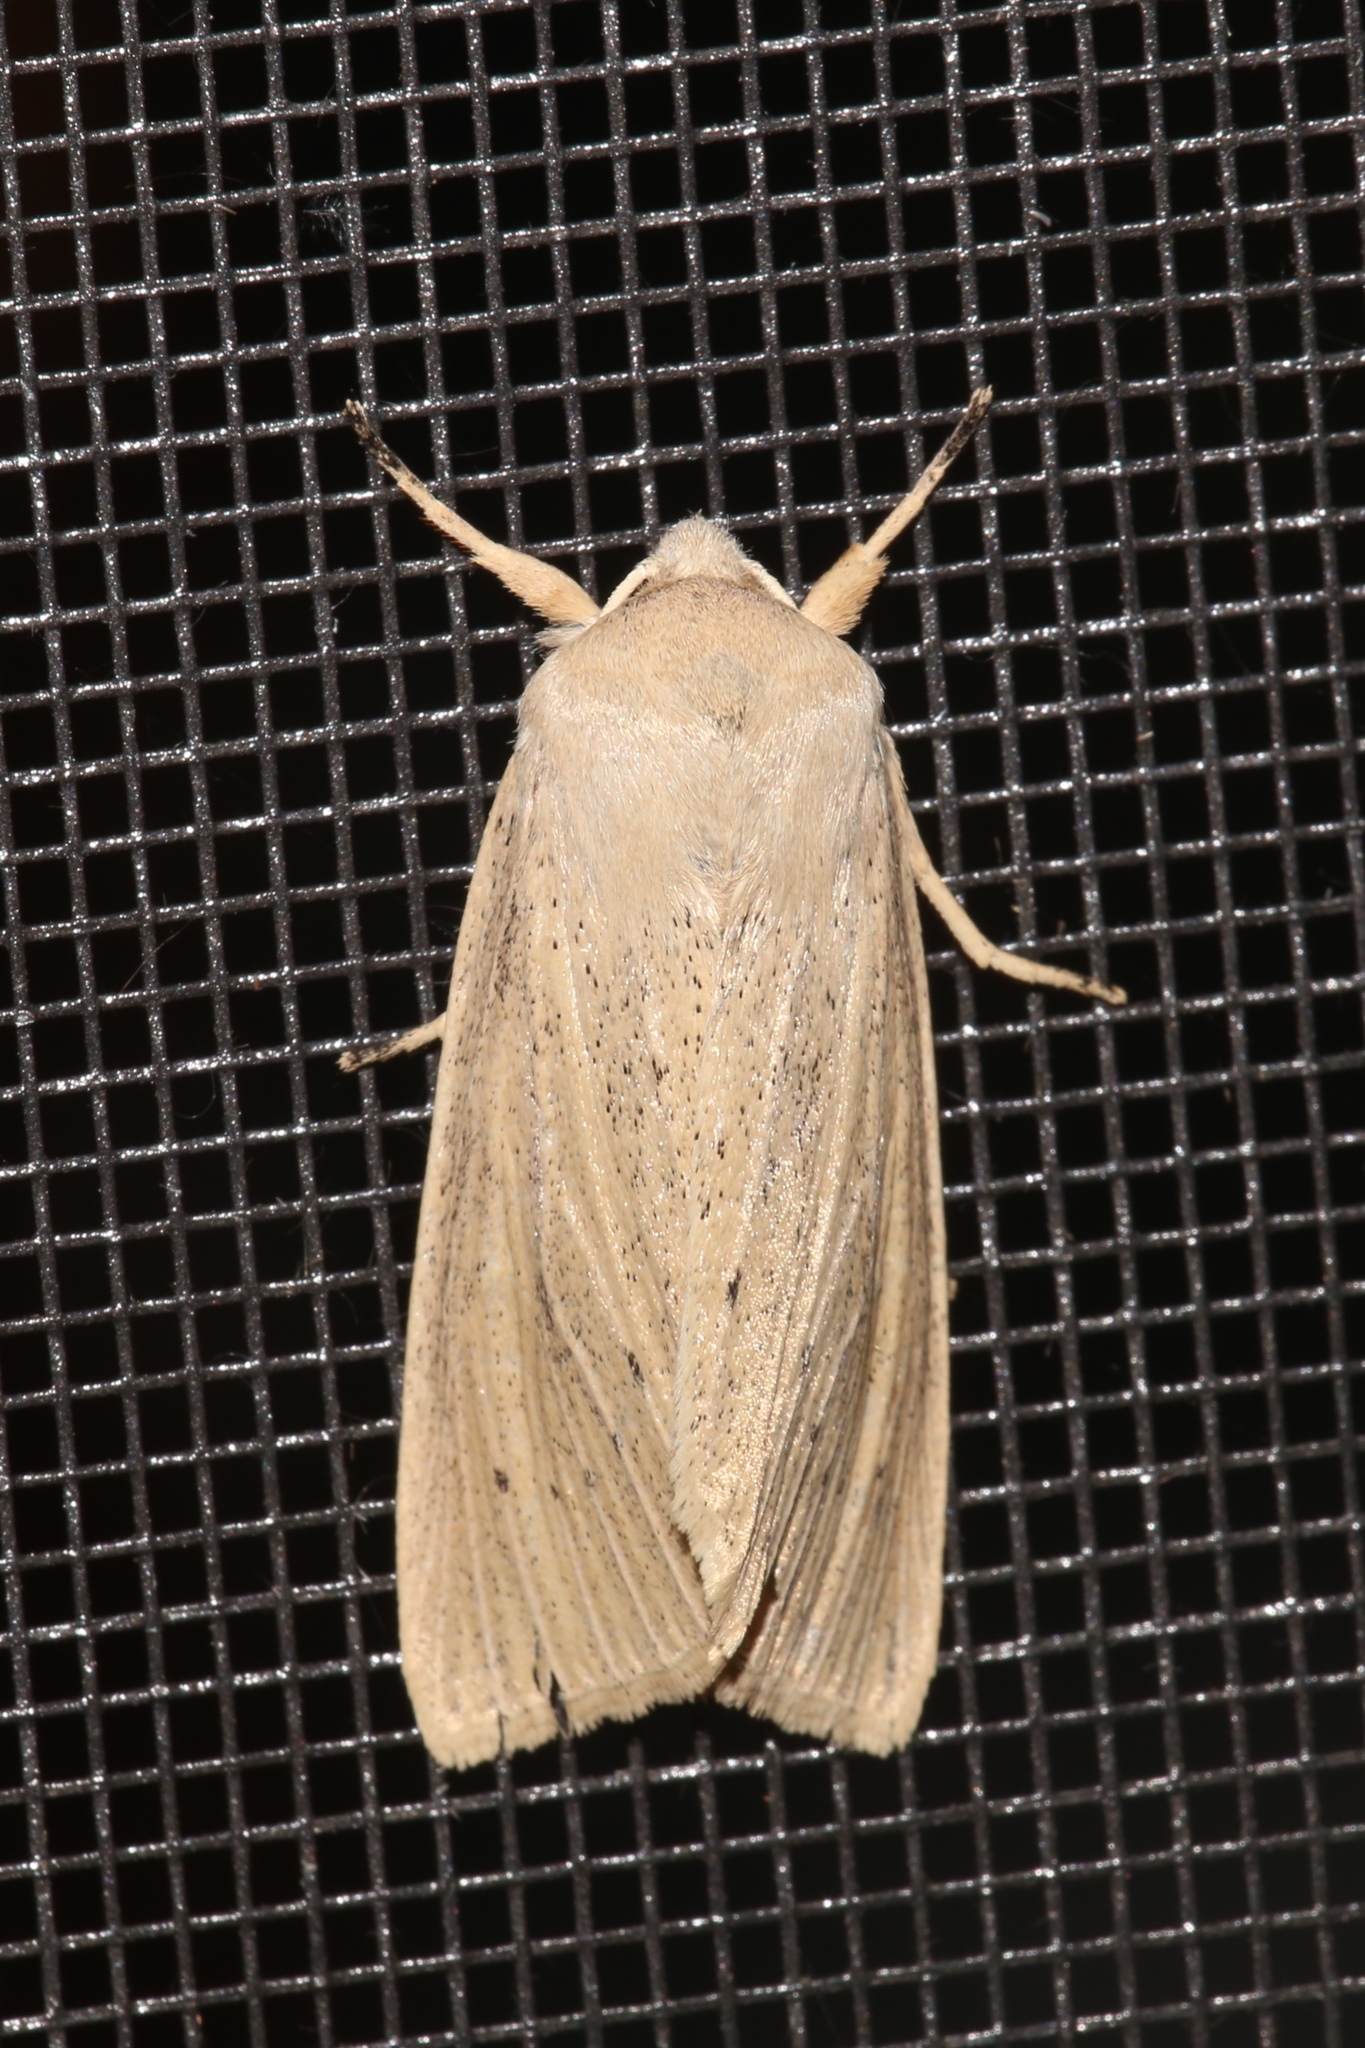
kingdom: Animalia
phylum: Arthropoda
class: Insecta
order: Lepidoptera
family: Noctuidae
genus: Rhizedra
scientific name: Rhizedra lutosa
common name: Large wainscot
